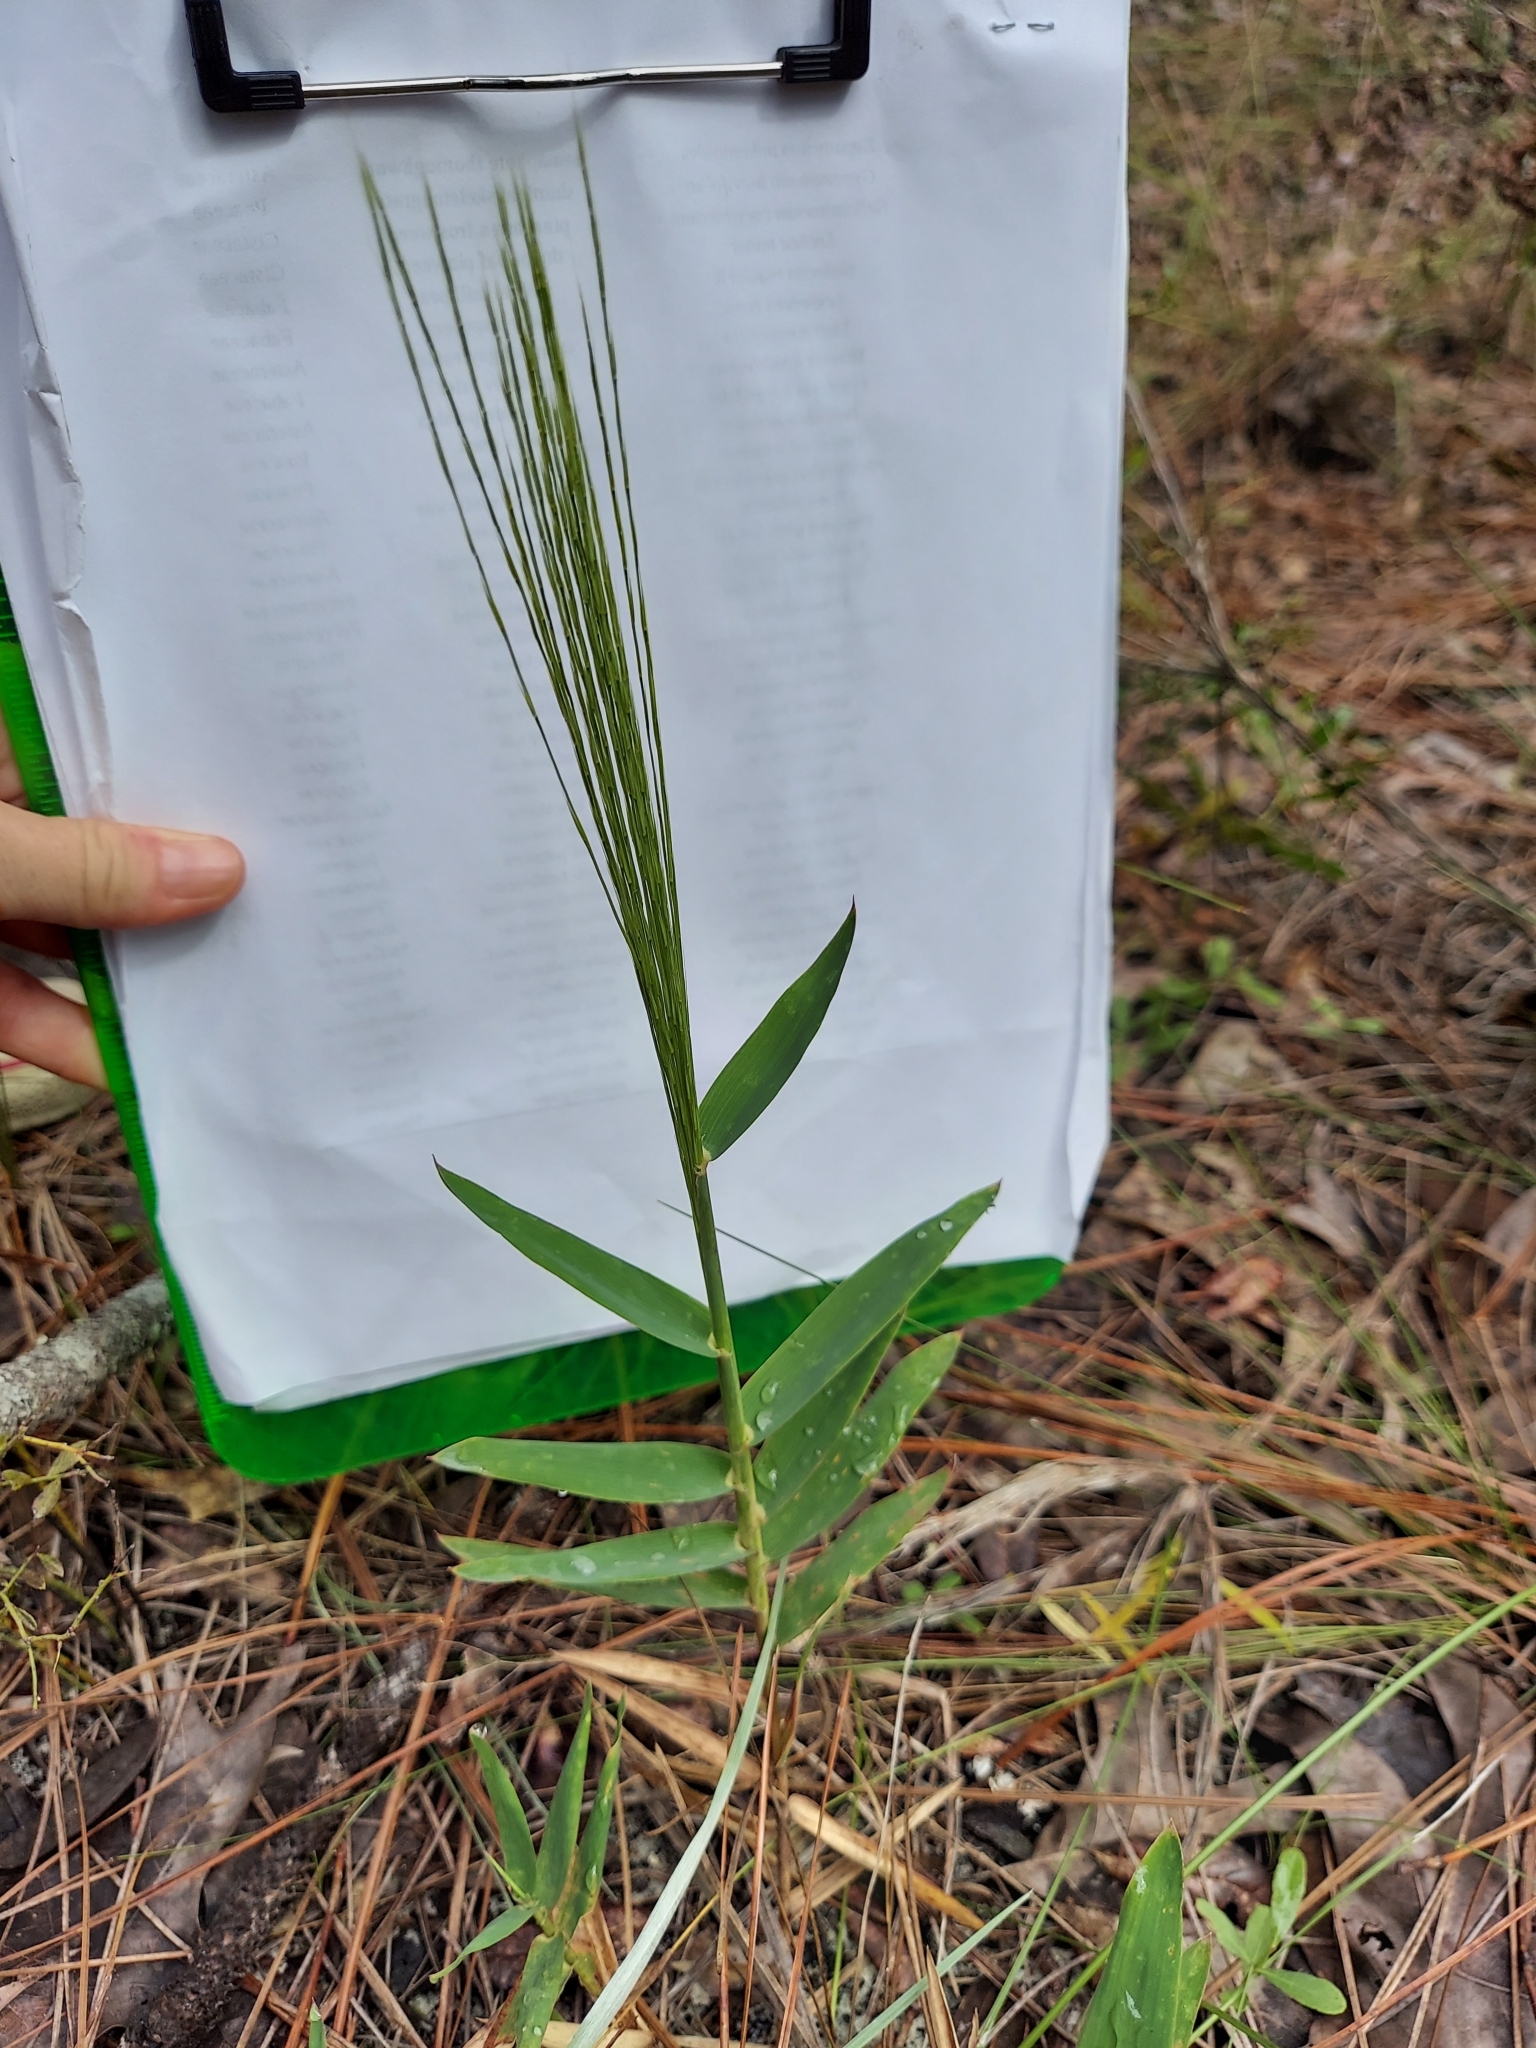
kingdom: Plantae
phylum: Tracheophyta
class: Liliopsida
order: Poales
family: Poaceae
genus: Gymnopogon
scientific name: Gymnopogon ambiguus
